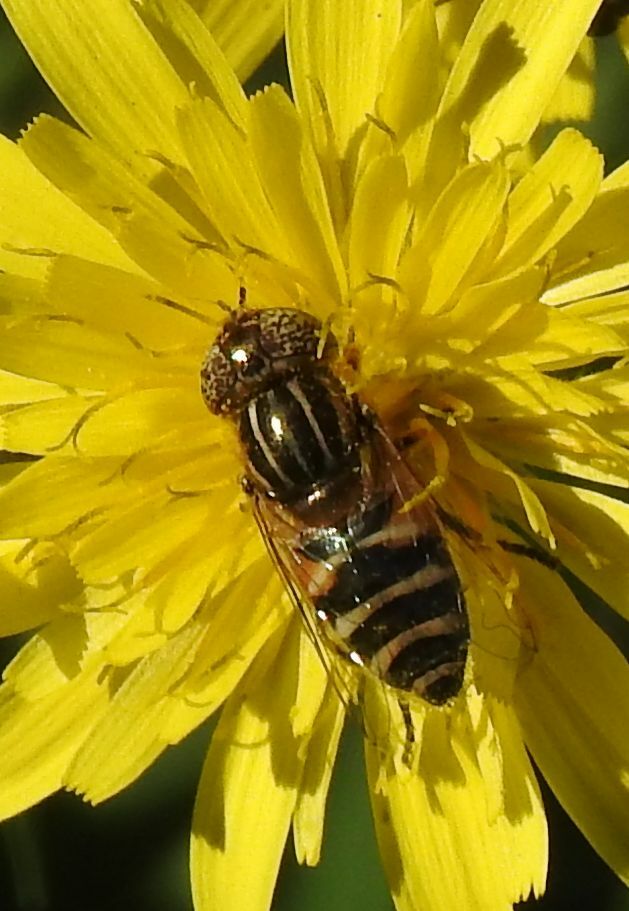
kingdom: Animalia
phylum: Arthropoda
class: Insecta
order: Diptera
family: Syrphidae
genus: Eristalinus
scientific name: Eristalinus megacephalus
